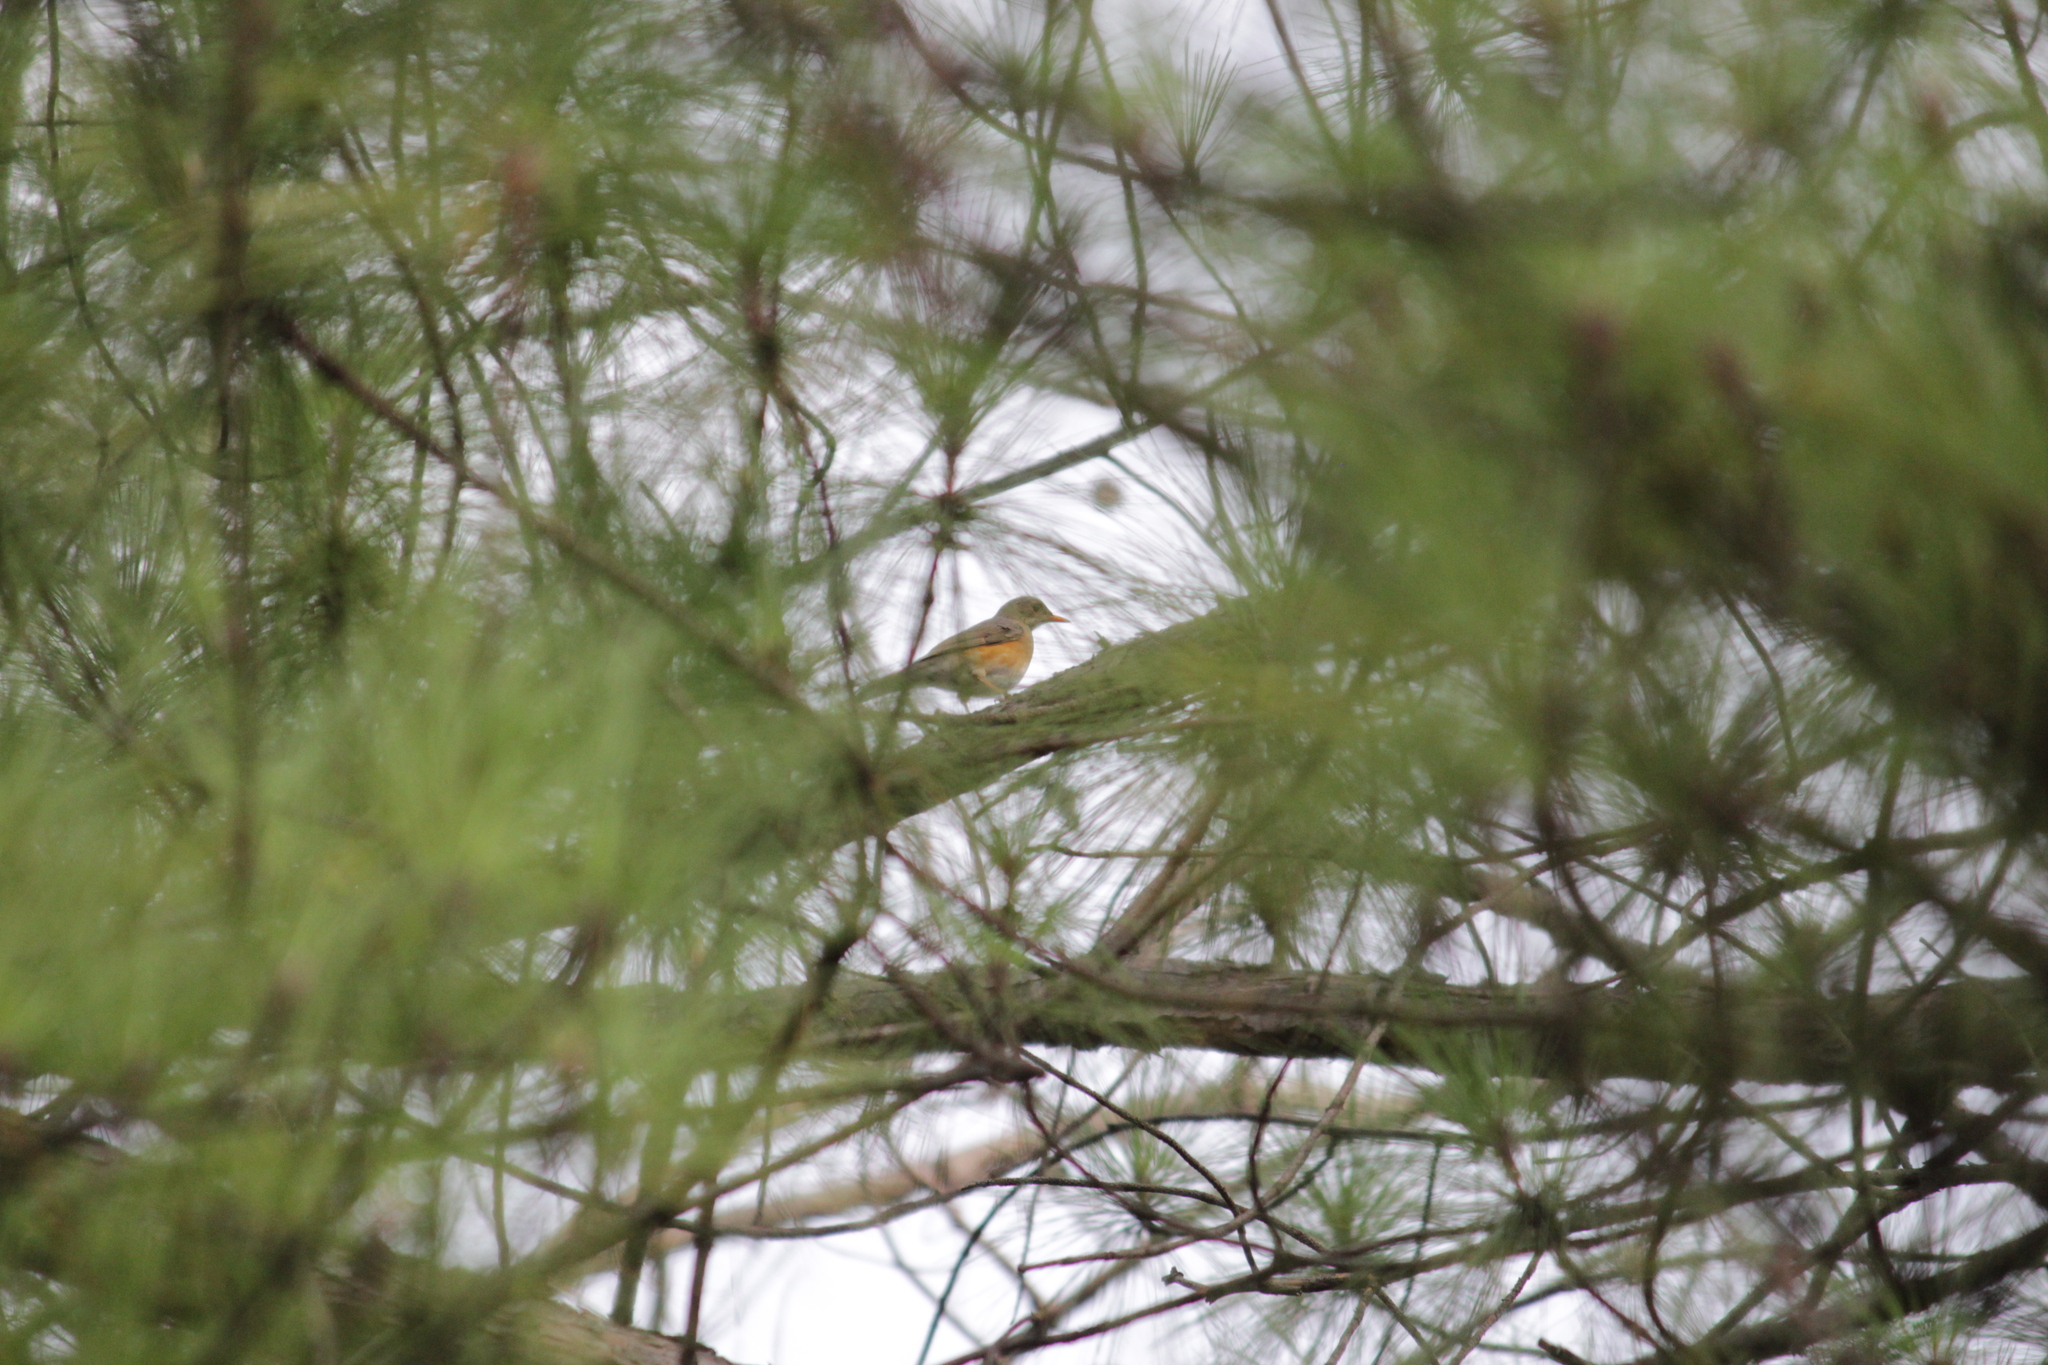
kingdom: Animalia
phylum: Chordata
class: Aves
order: Passeriformes
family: Turdidae
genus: Turdus
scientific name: Turdus libonyana
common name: Kurrichane thrush
